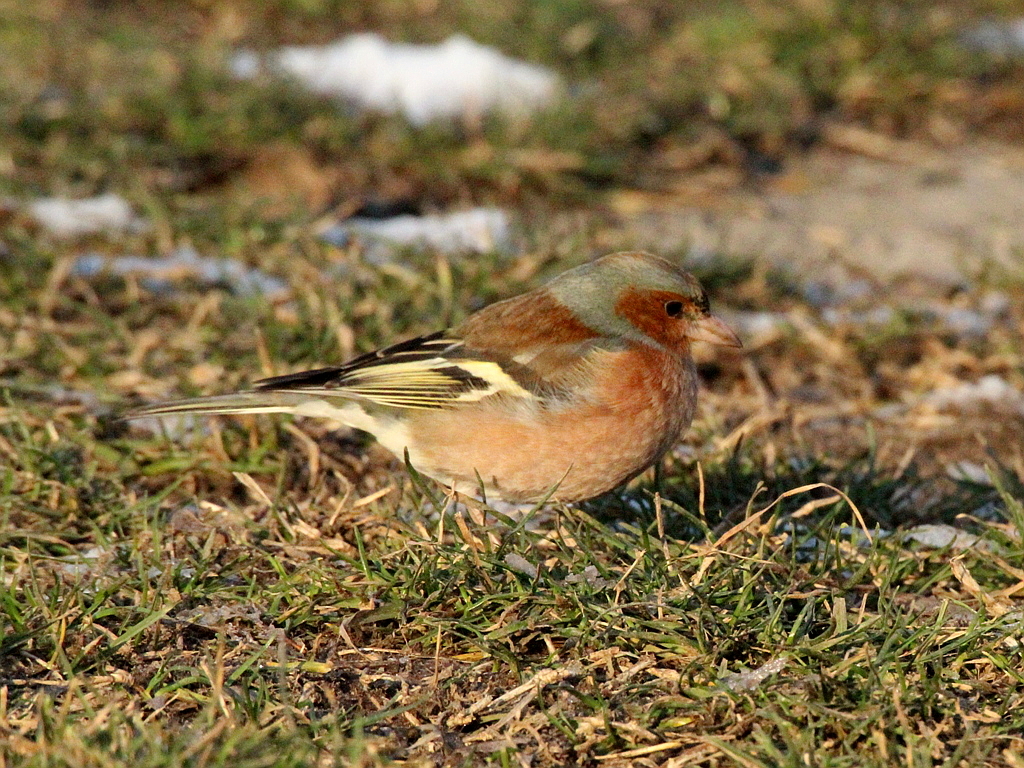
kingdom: Animalia
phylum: Chordata
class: Aves
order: Passeriformes
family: Fringillidae
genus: Fringilla
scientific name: Fringilla coelebs
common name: Common chaffinch
